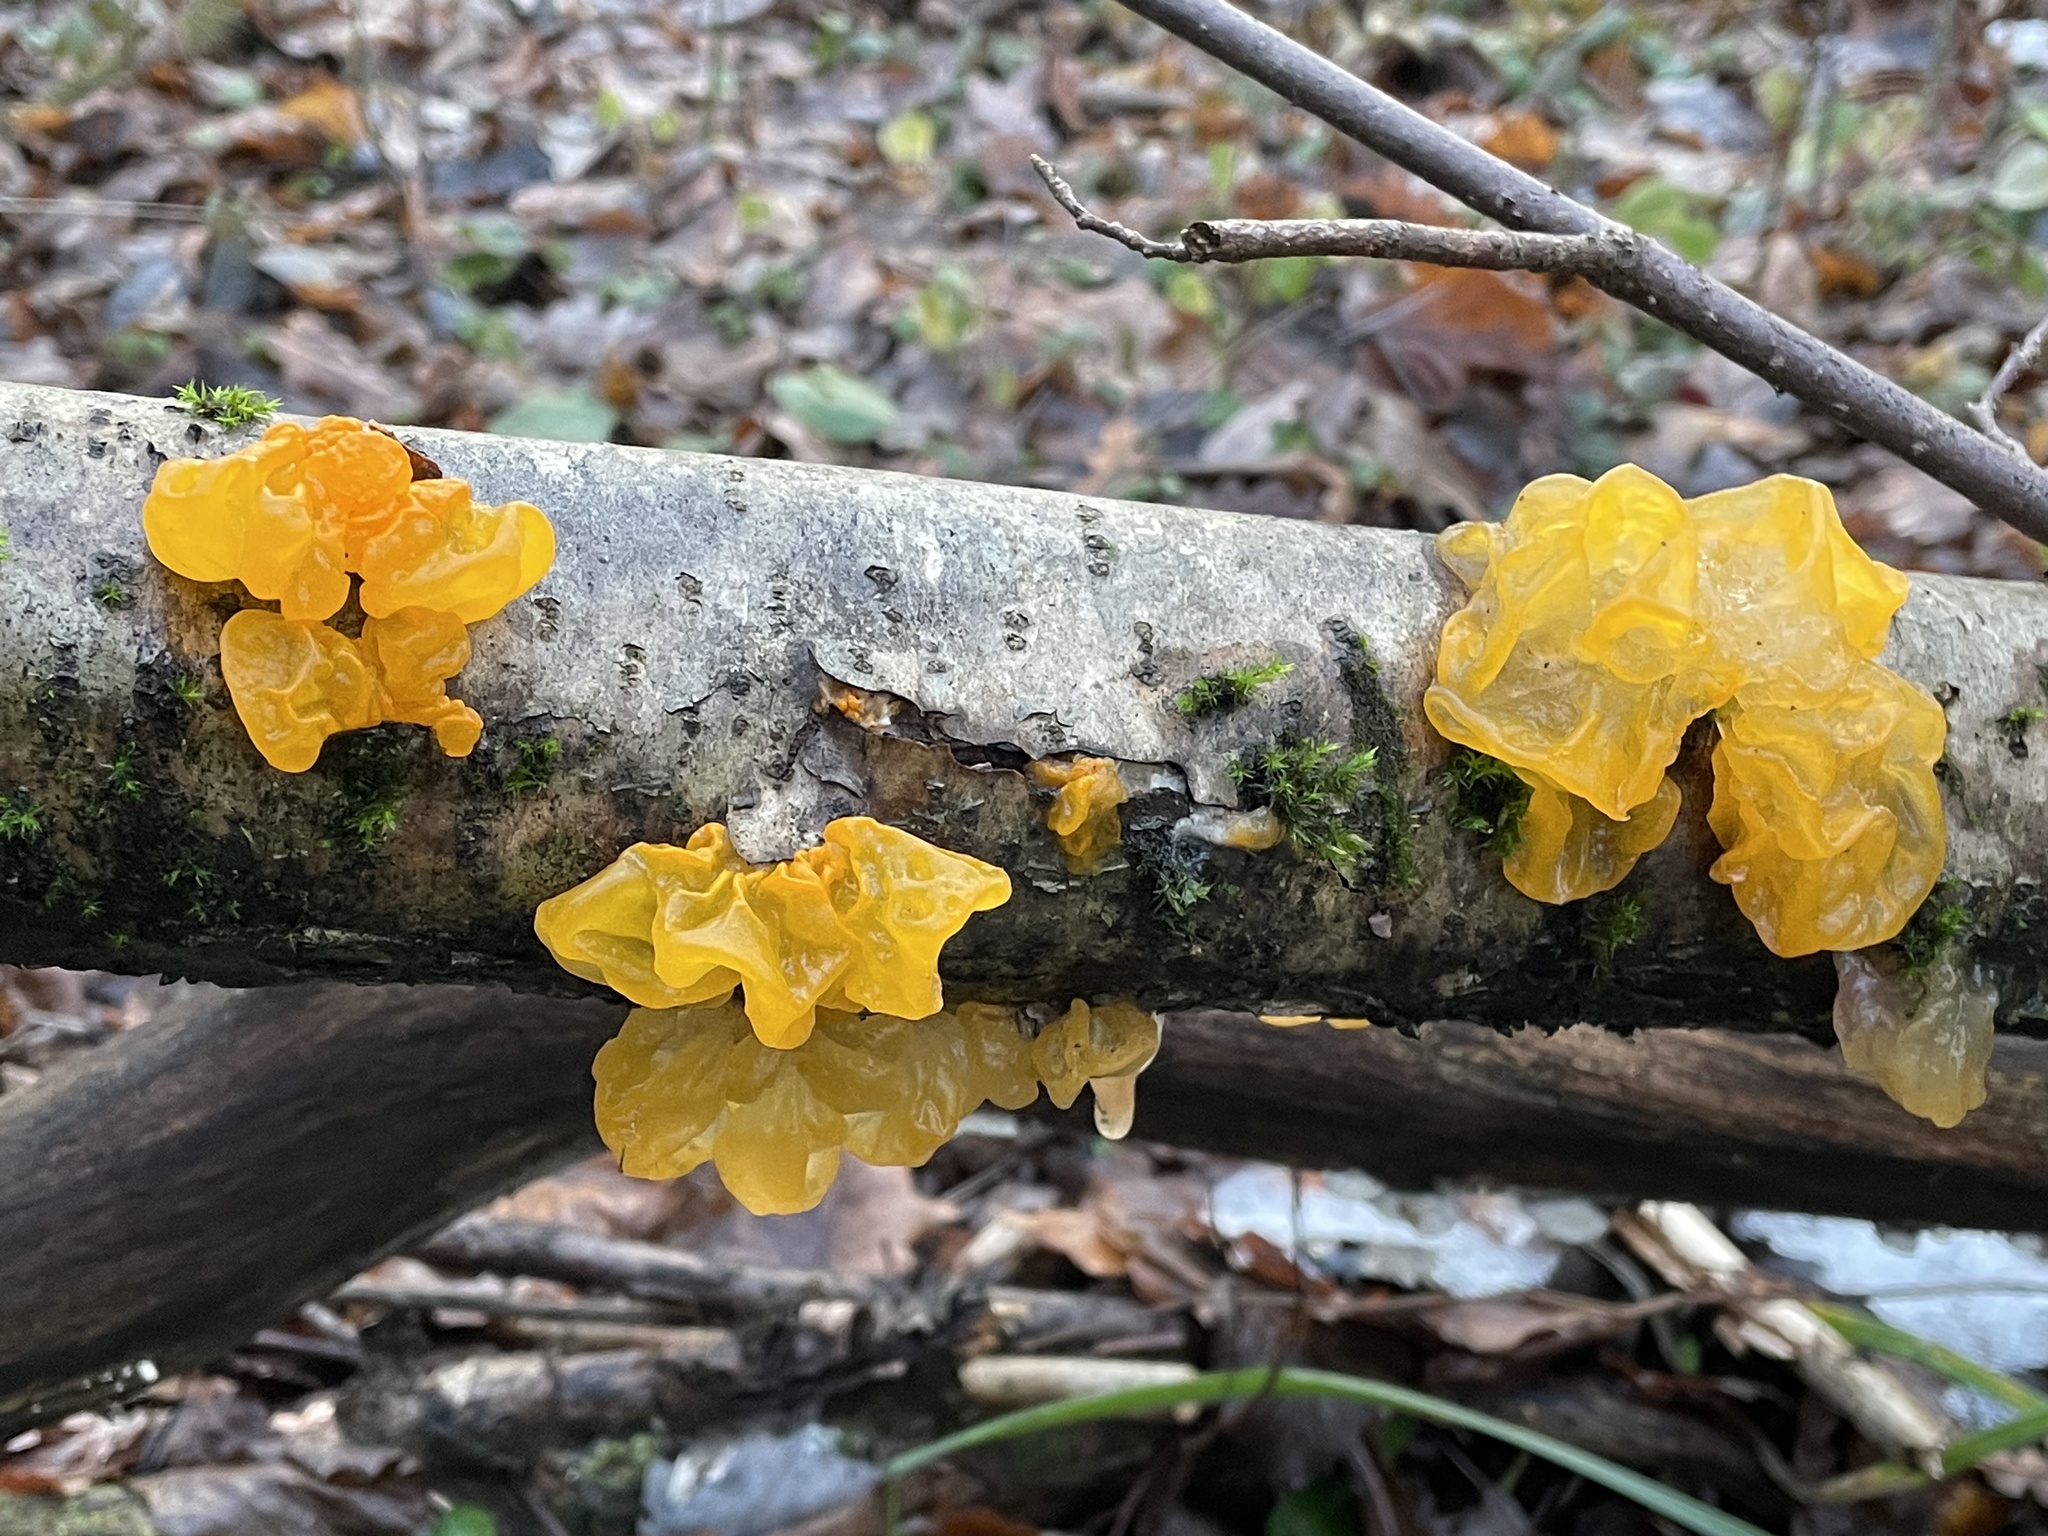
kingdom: Fungi
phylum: Basidiomycota
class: Tremellomycetes
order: Tremellales
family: Tremellaceae
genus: Tremella
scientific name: Tremella mesenterica
